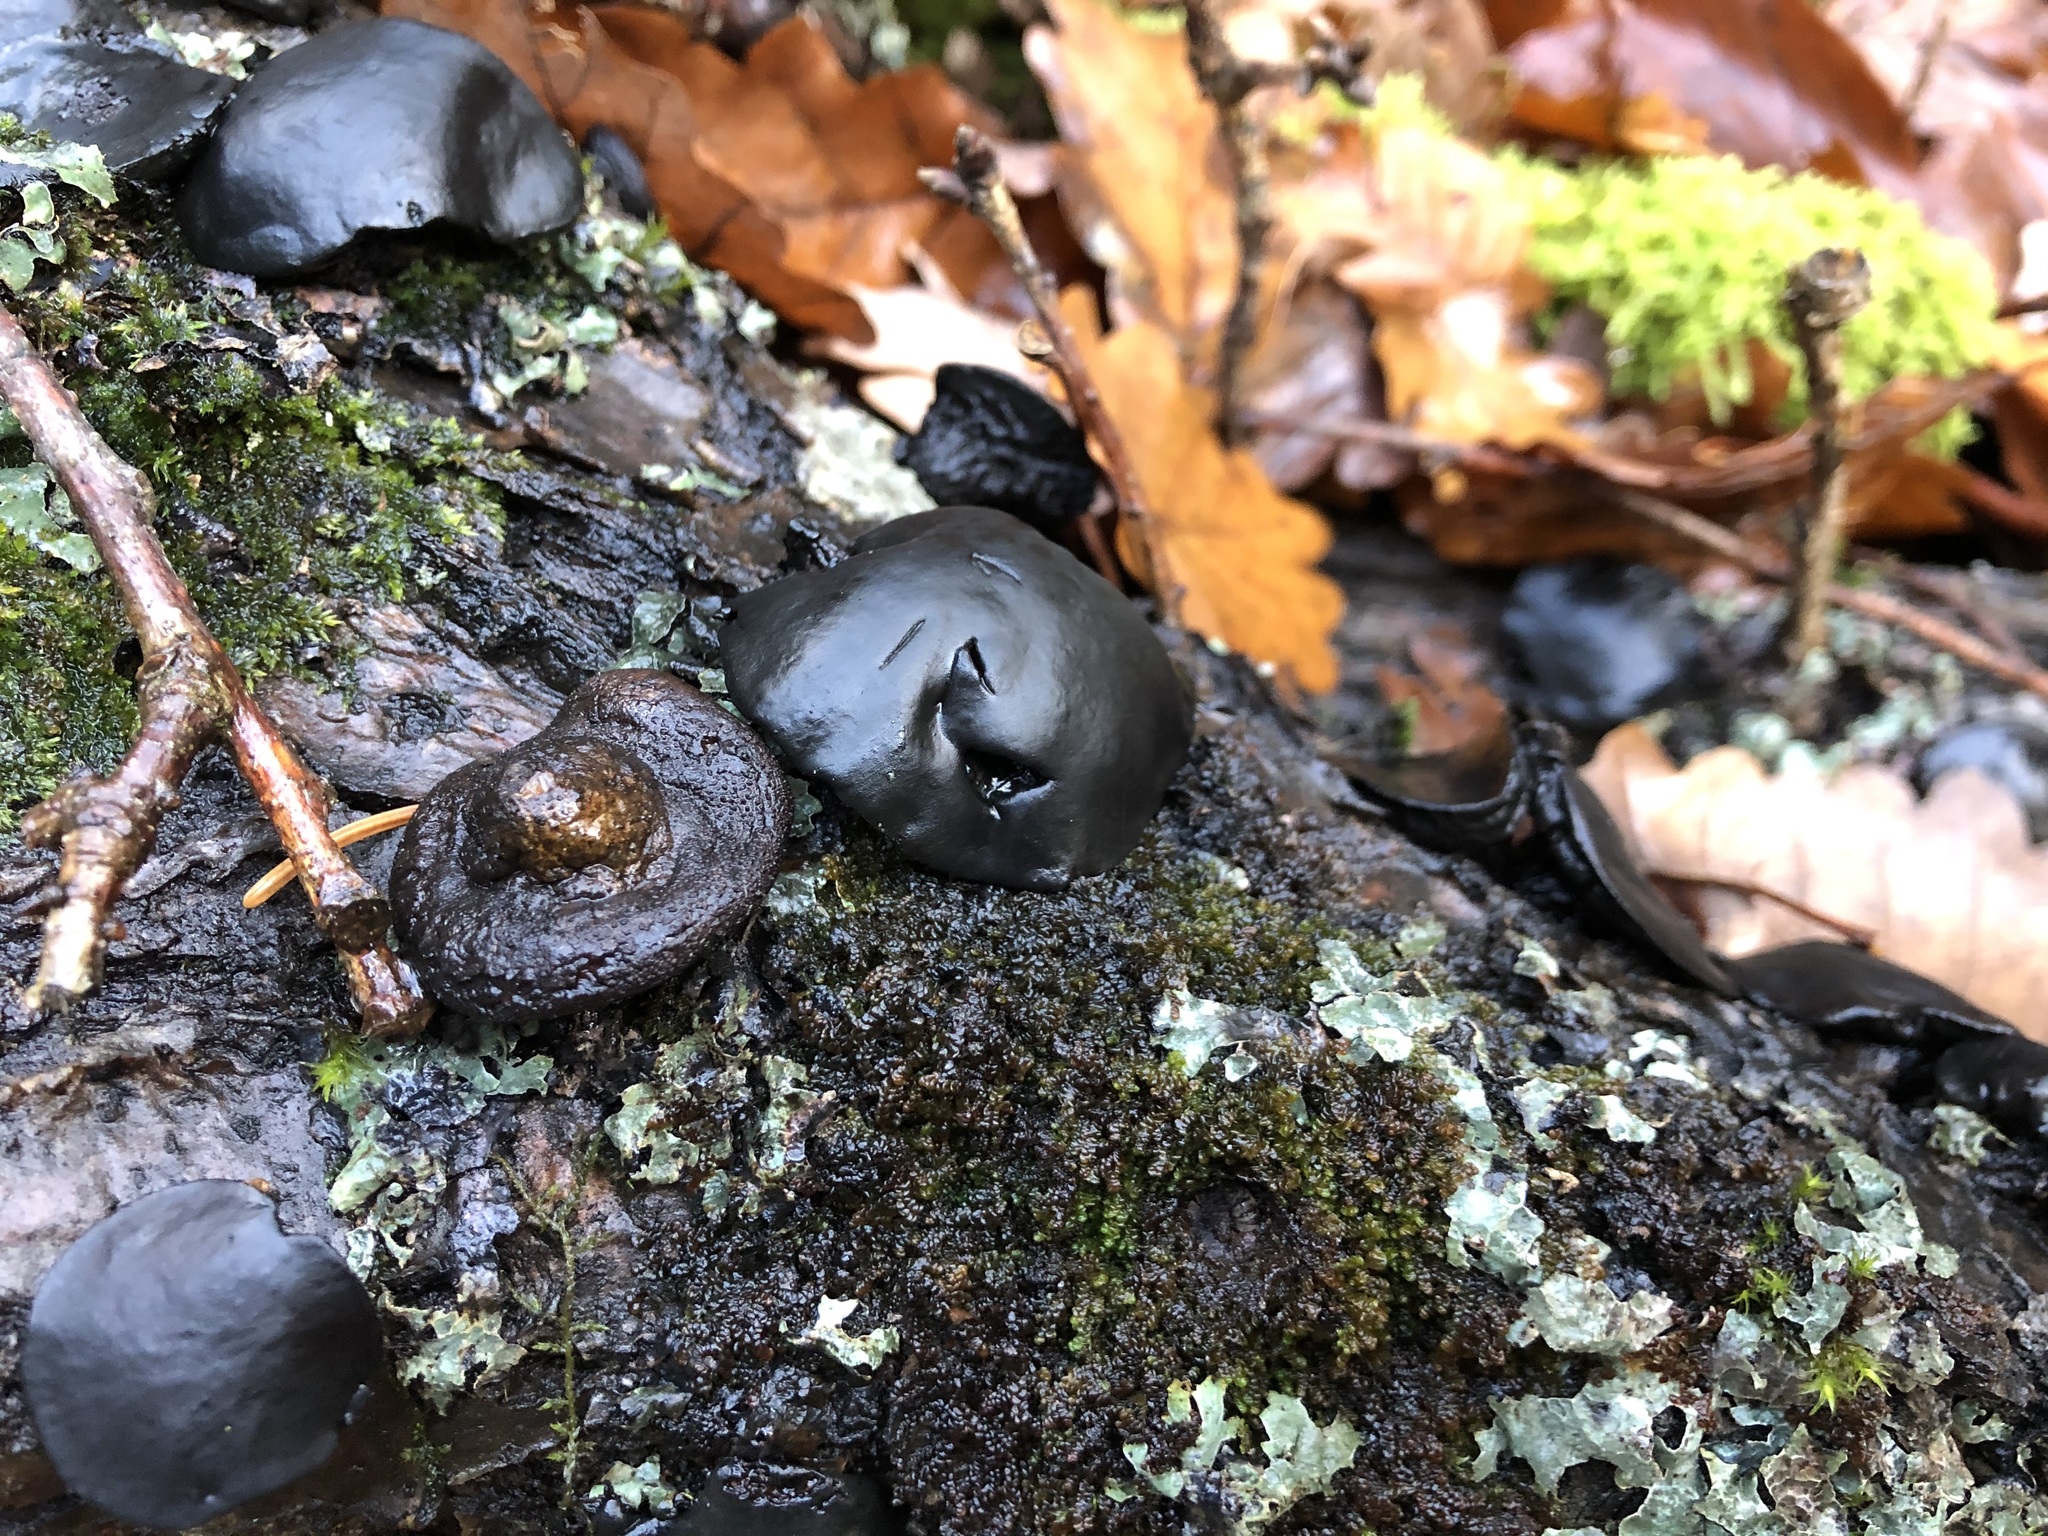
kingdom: Fungi
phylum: Ascomycota
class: Leotiomycetes
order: Phacidiales
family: Phacidiaceae
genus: Bulgaria
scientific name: Bulgaria inquinans
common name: Black bulgar
